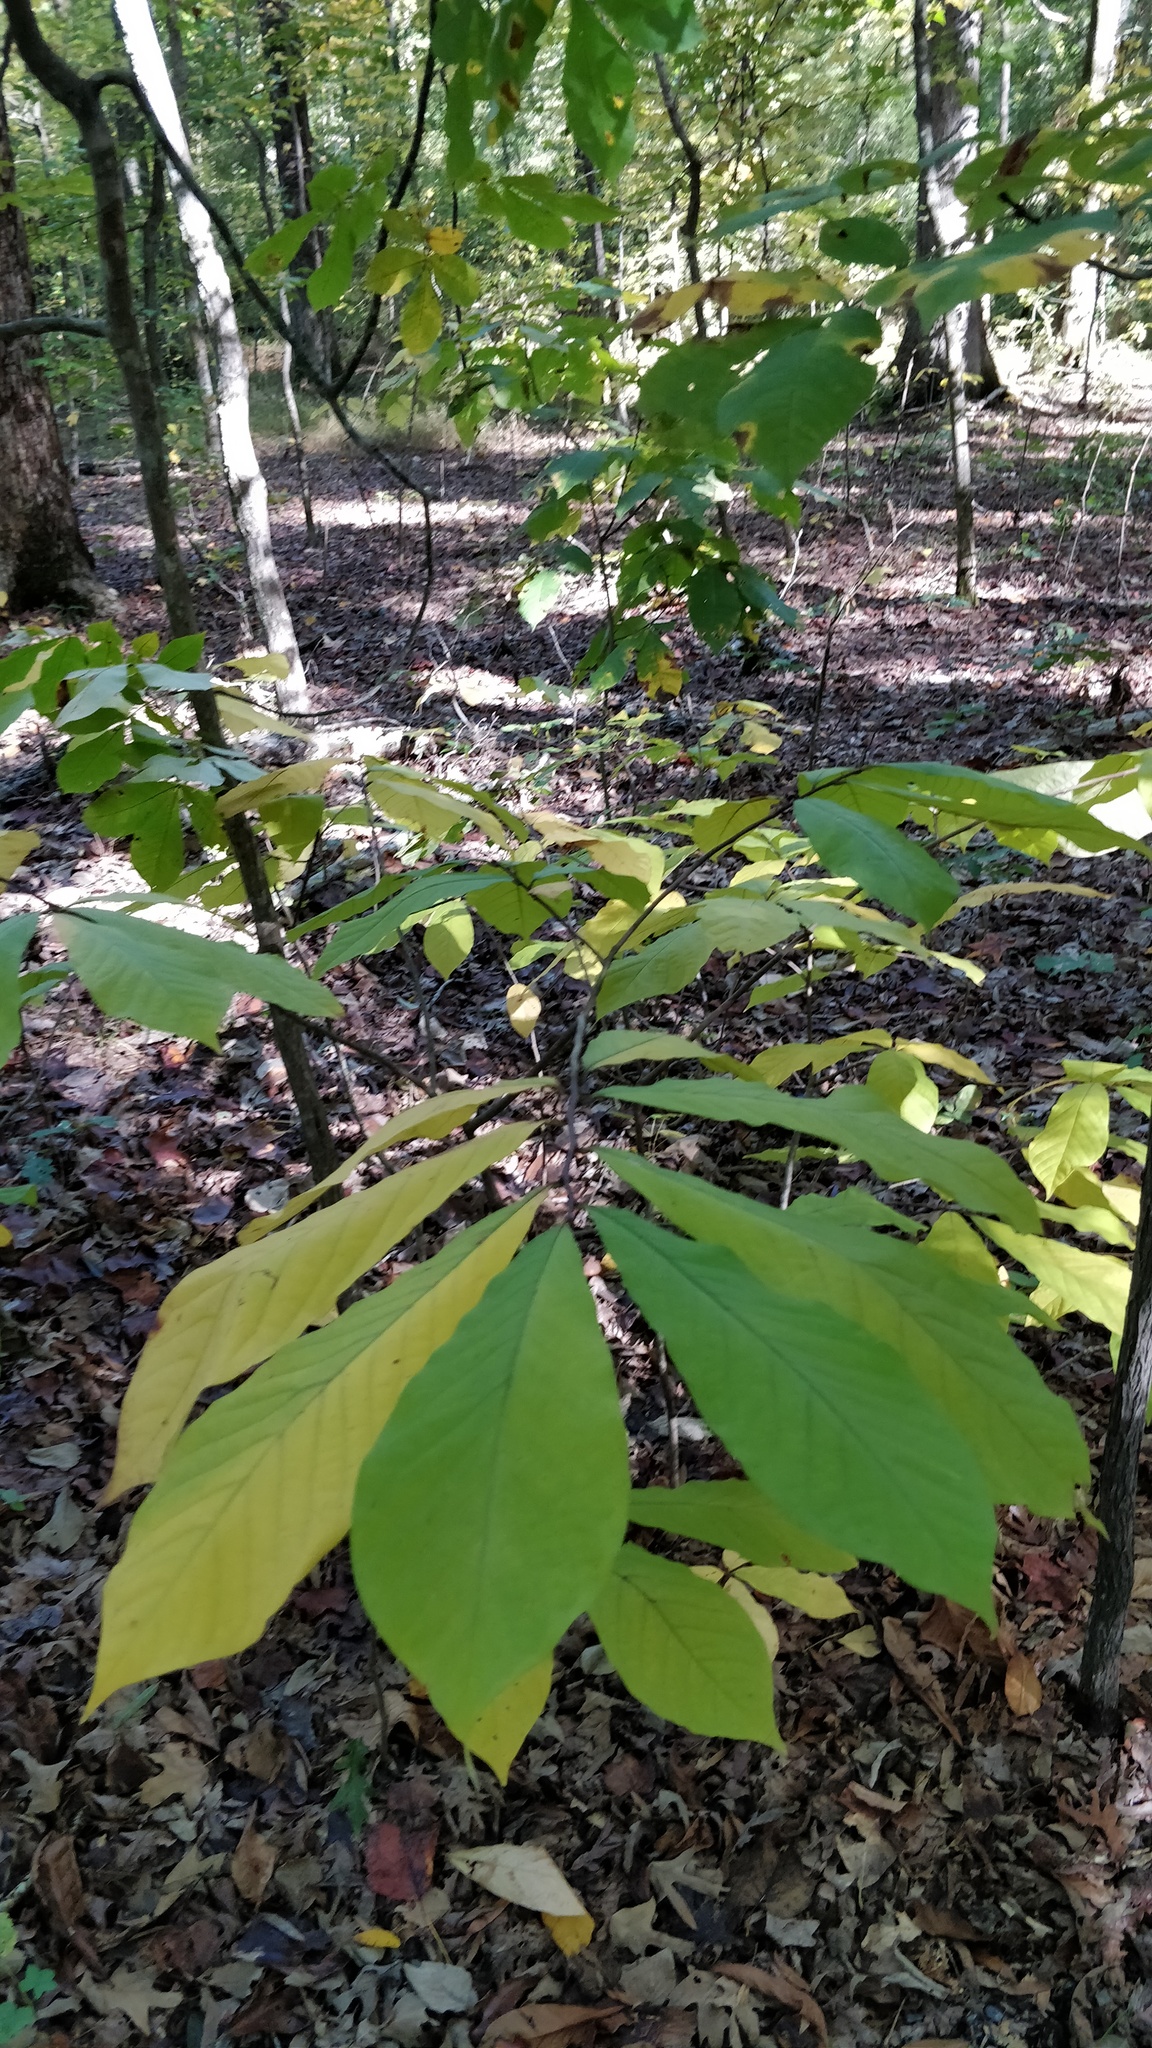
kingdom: Plantae
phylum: Tracheophyta
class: Magnoliopsida
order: Magnoliales
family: Annonaceae
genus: Asimina
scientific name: Asimina triloba
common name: Dog-banana
